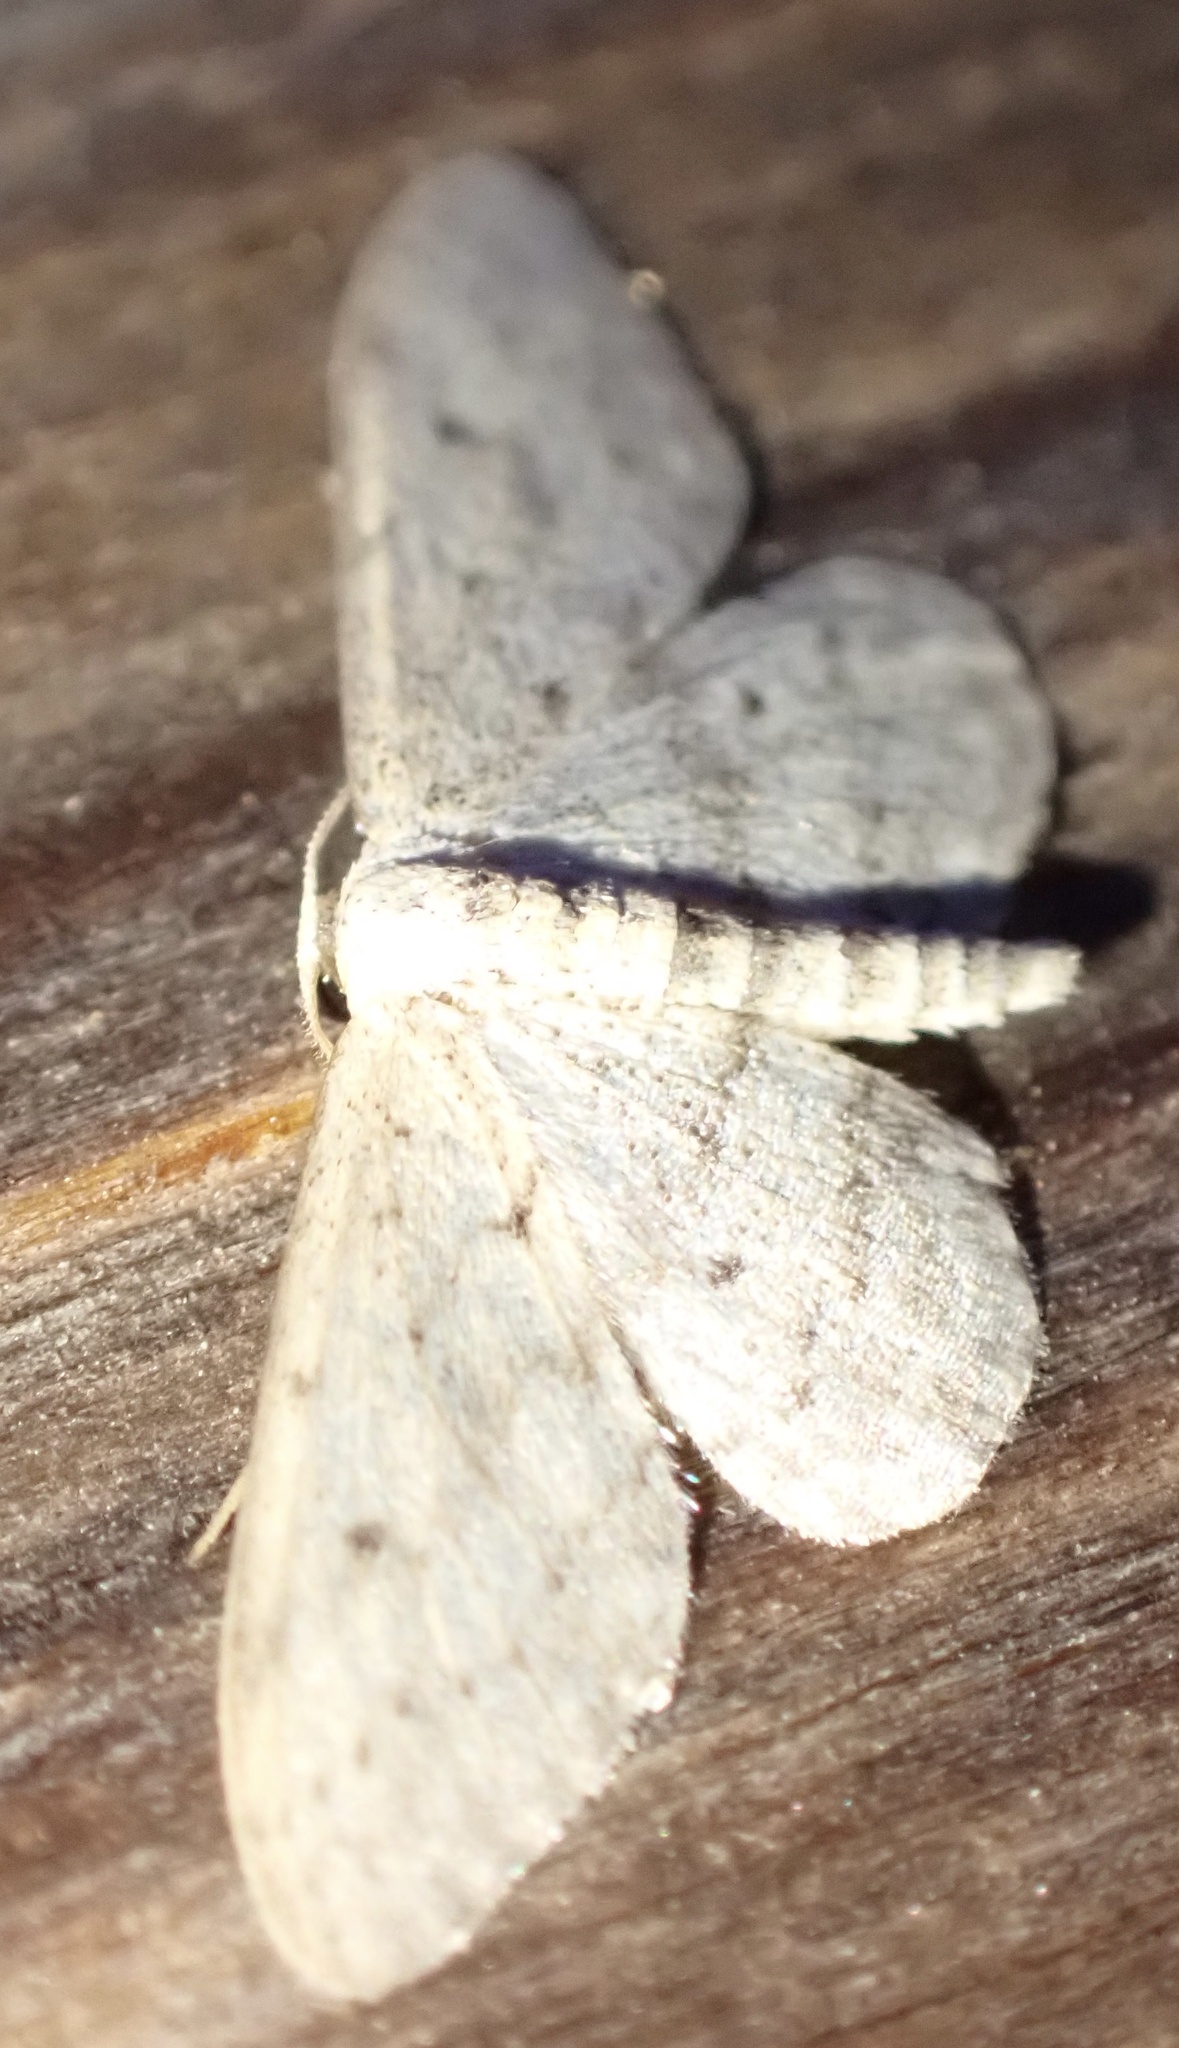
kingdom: Animalia
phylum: Arthropoda
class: Insecta
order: Lepidoptera
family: Geometridae
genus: Idaea
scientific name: Idaea seriata
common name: Small dusty wave
